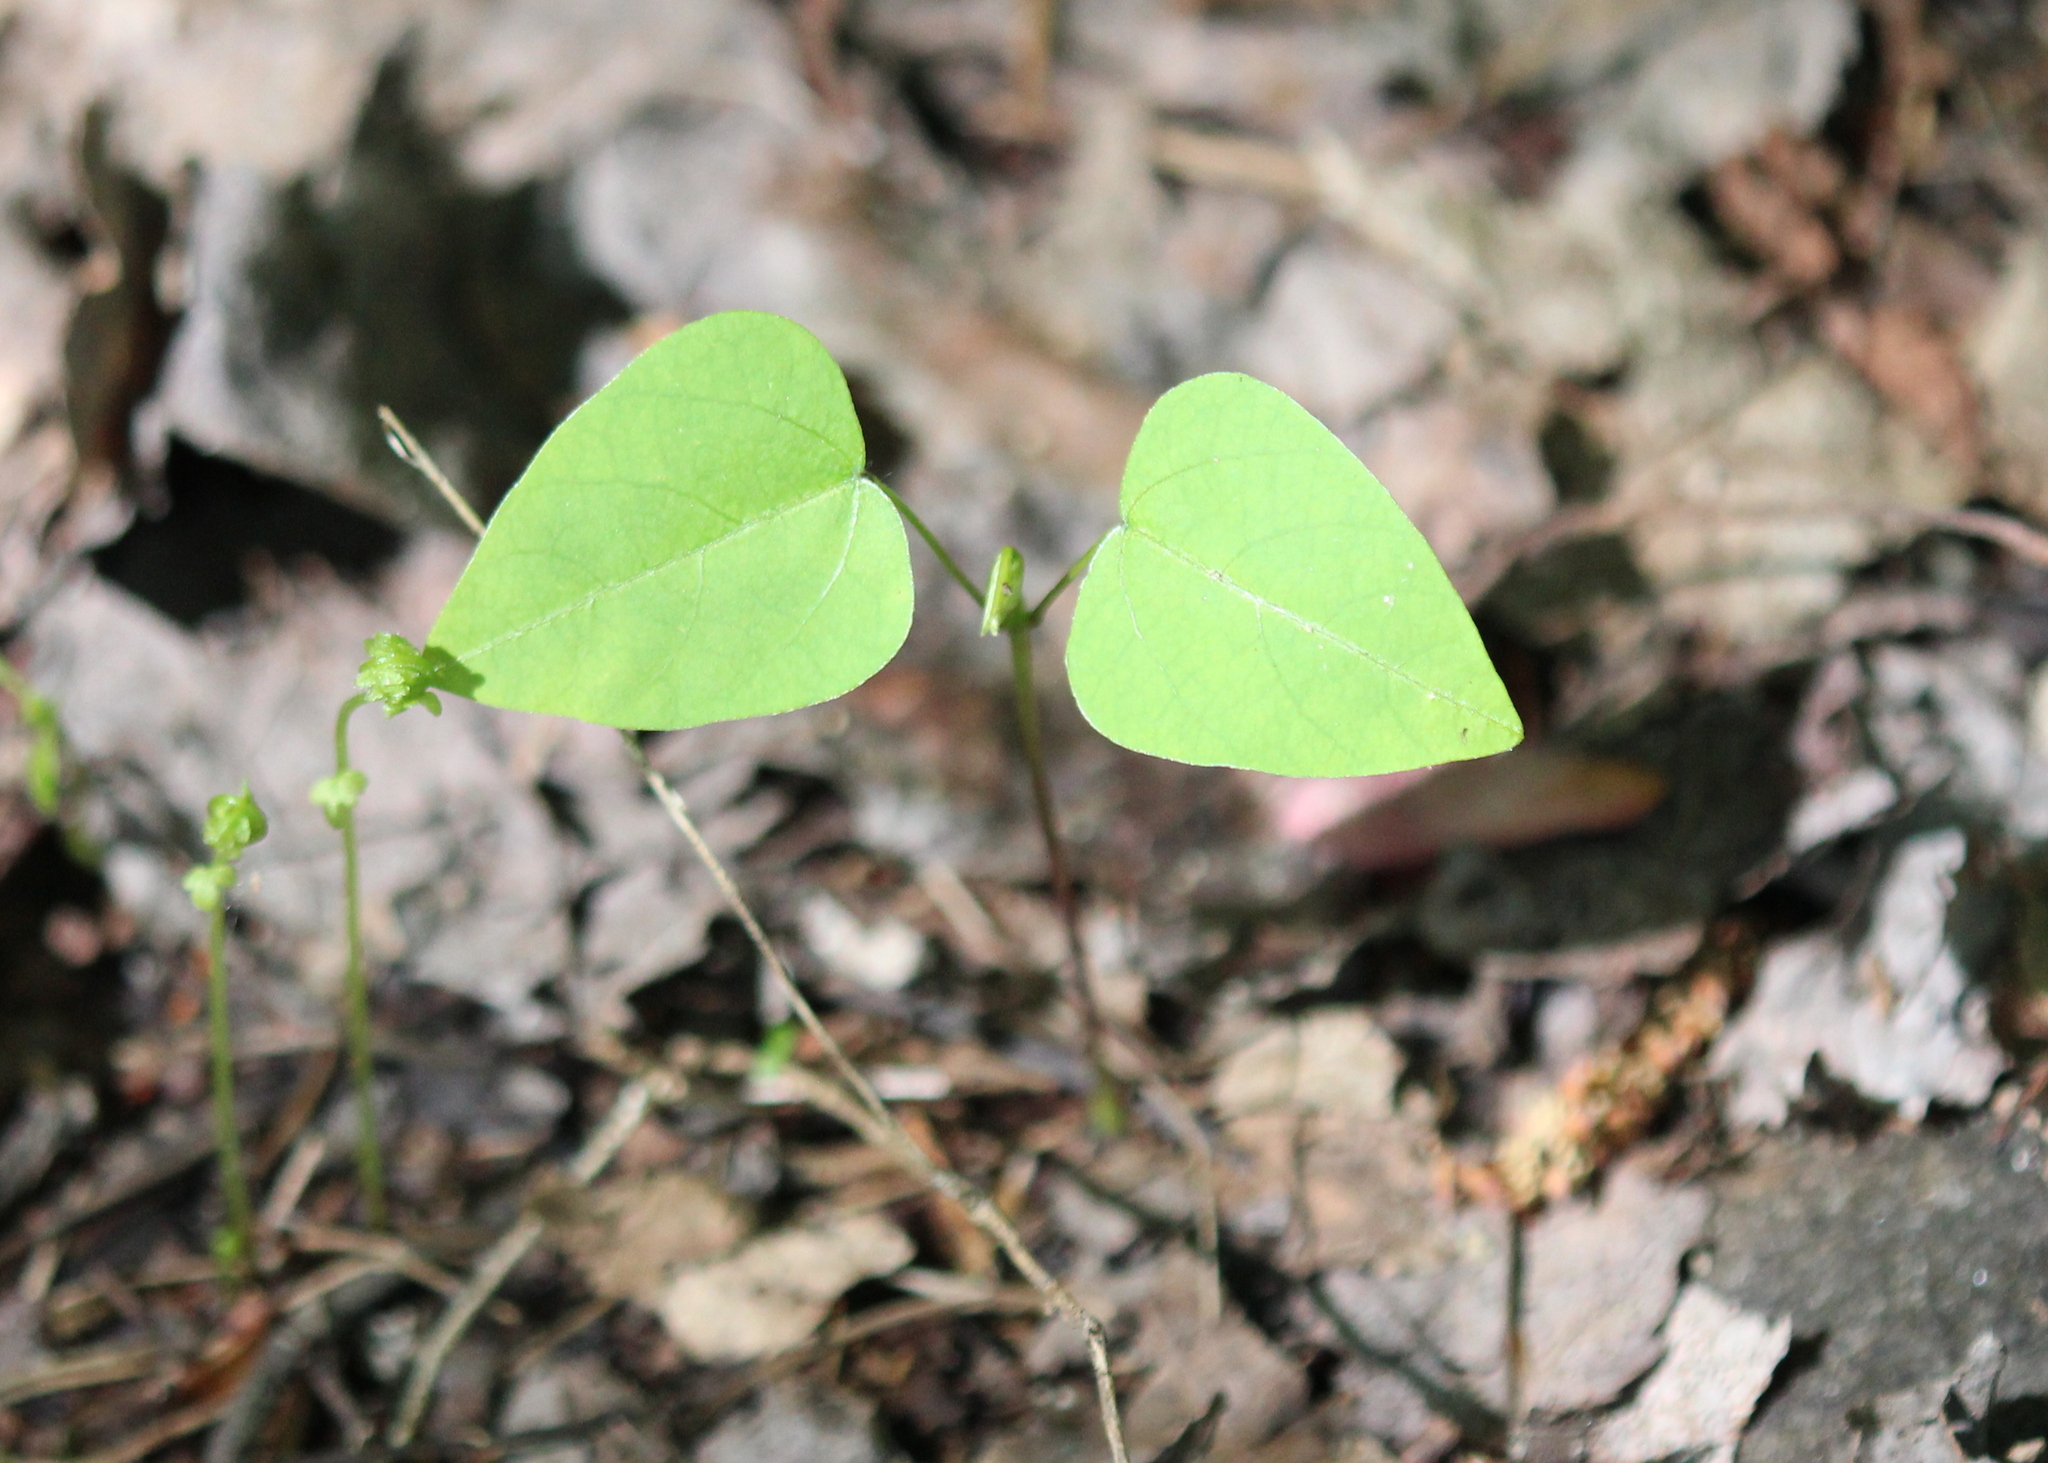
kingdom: Plantae
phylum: Tracheophyta
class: Magnoliopsida
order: Fabales
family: Fabaceae
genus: Amphicarpaea
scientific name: Amphicarpaea bracteata
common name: American hog peanut
